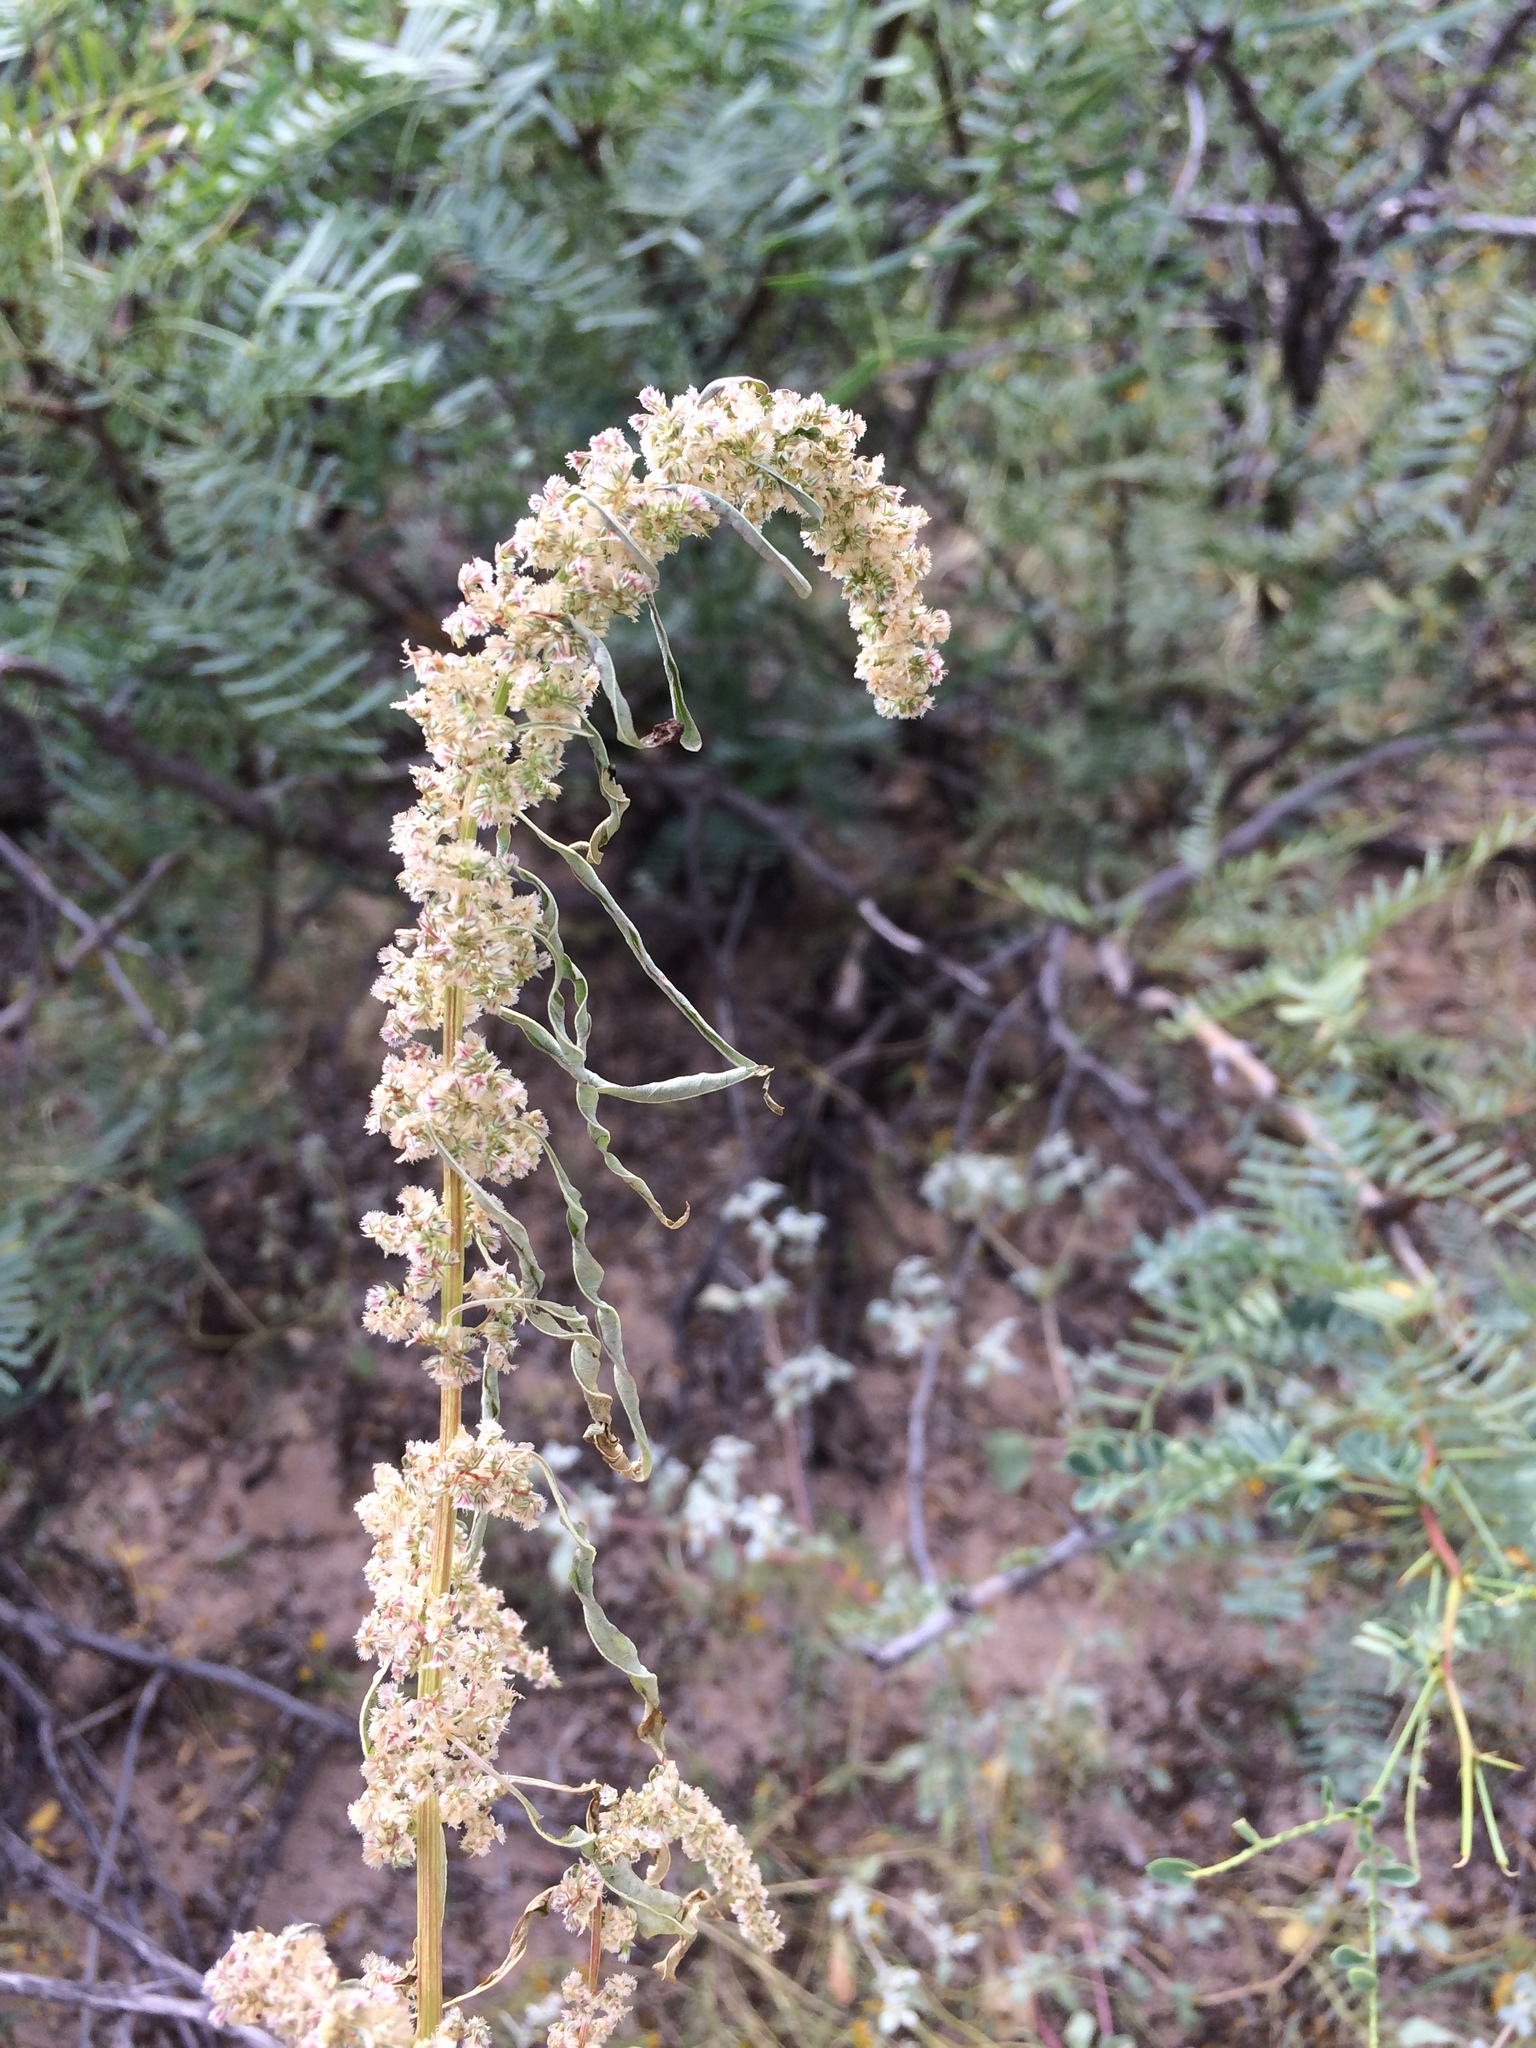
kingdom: Plantae
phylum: Tracheophyta
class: Magnoliopsida
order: Caryophyllales
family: Amaranthaceae
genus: Amaranthus
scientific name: Amaranthus fimbriatus
